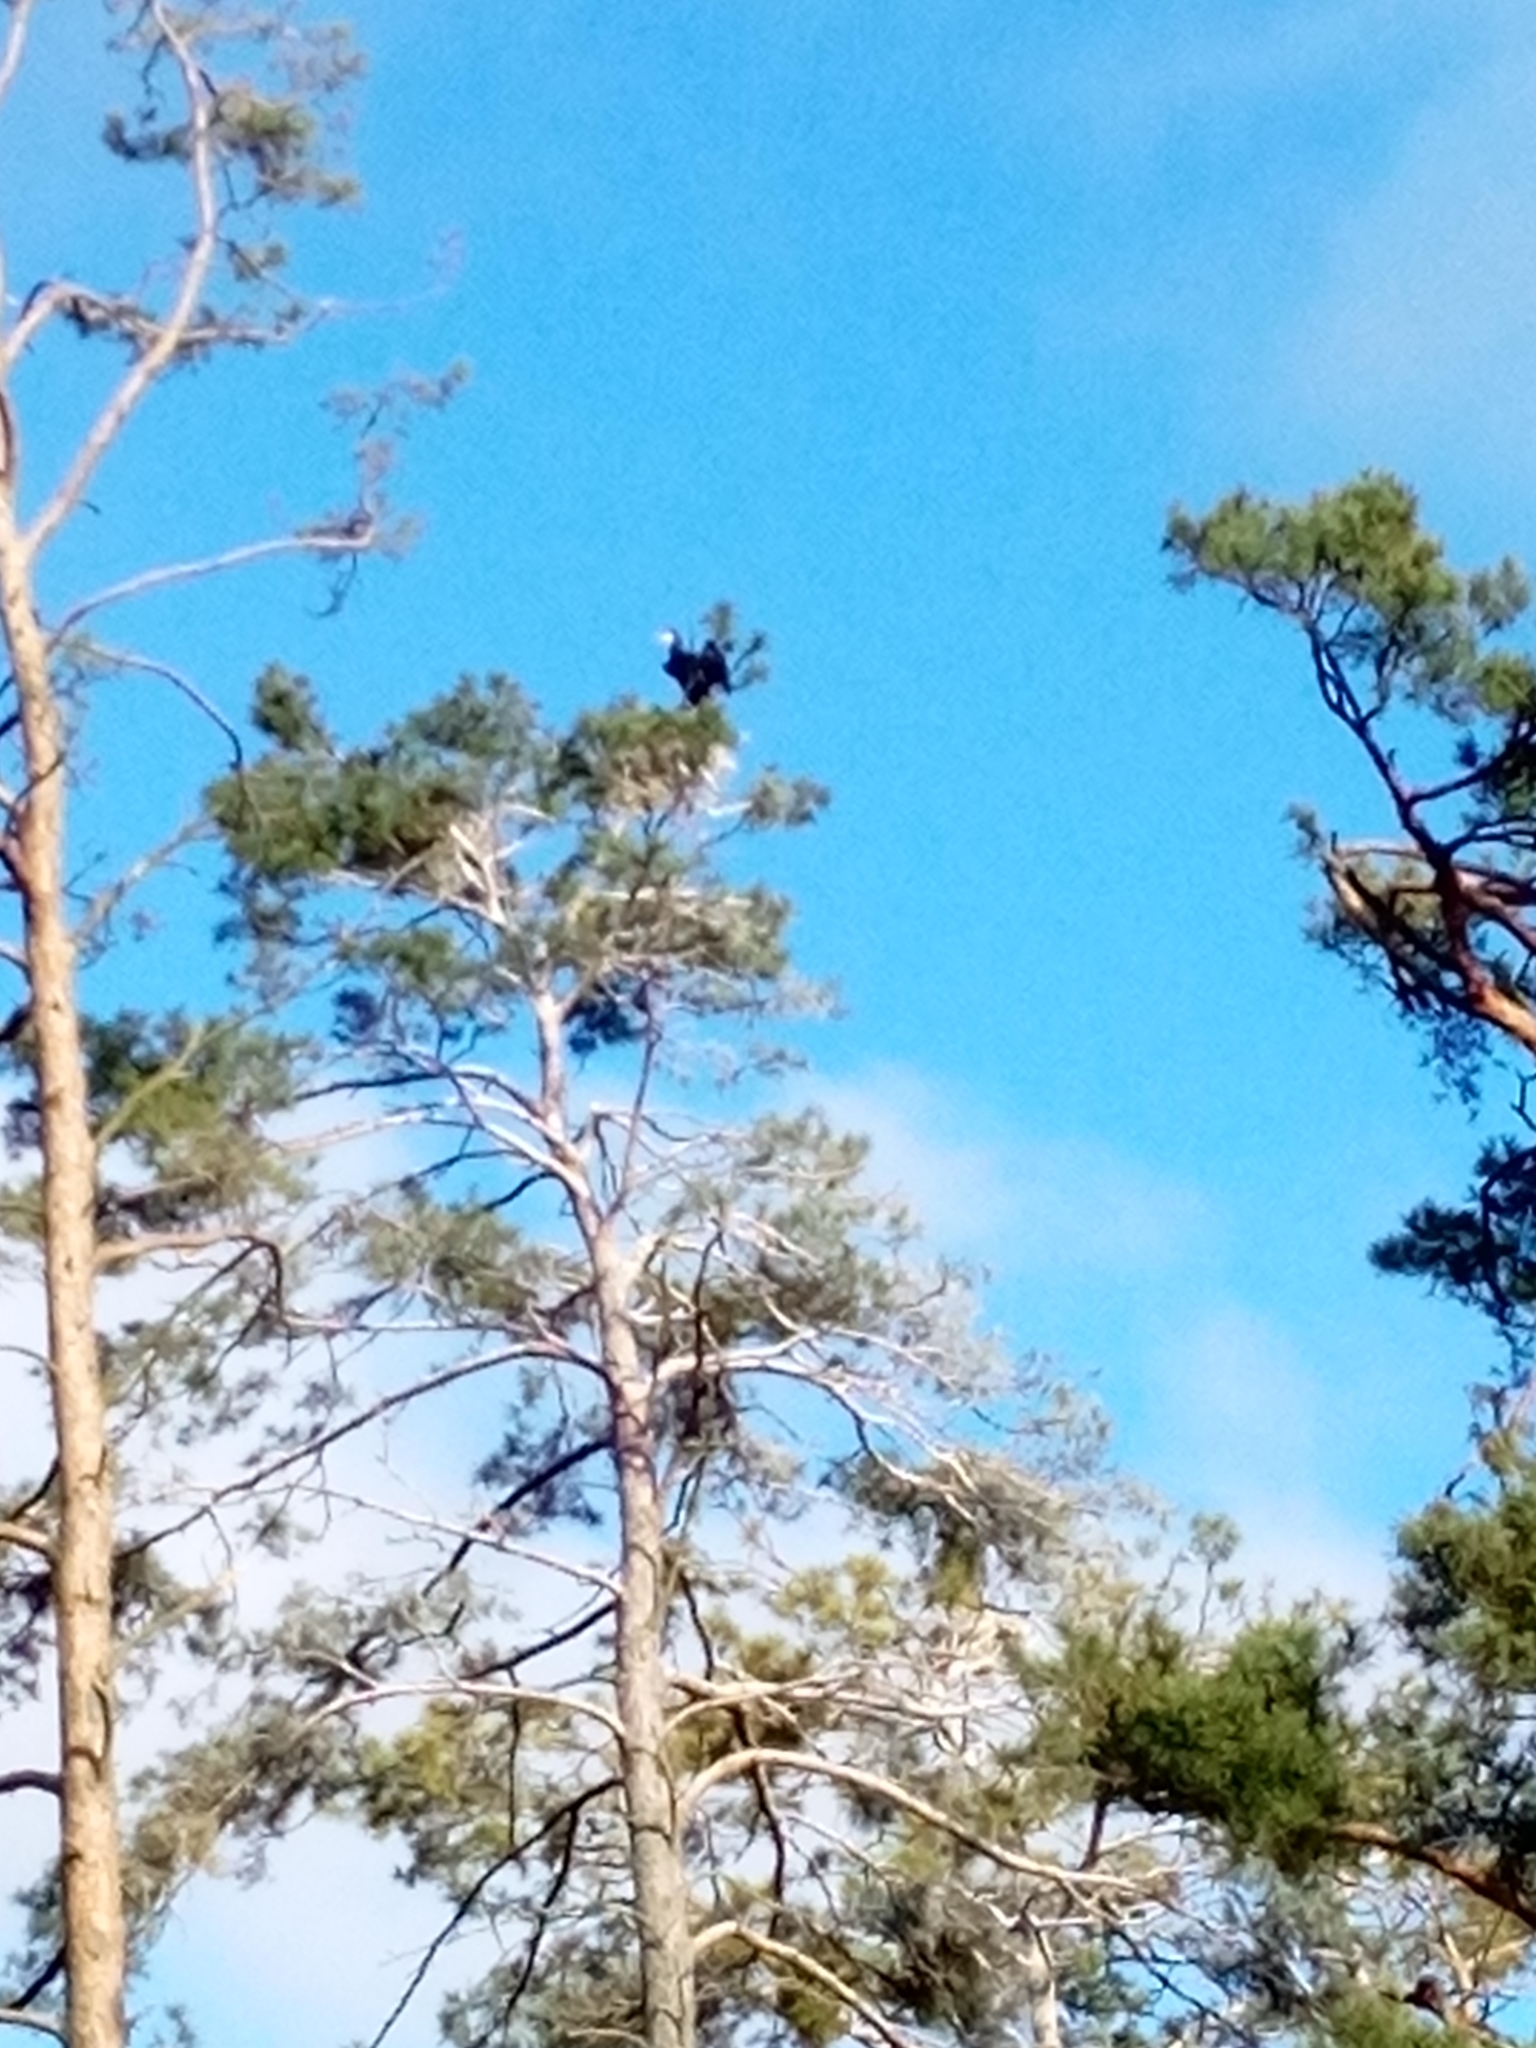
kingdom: Animalia
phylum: Chordata
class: Aves
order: Suliformes
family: Phalacrocoracidae
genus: Phalacrocorax
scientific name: Phalacrocorax carbo
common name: Great cormorant
